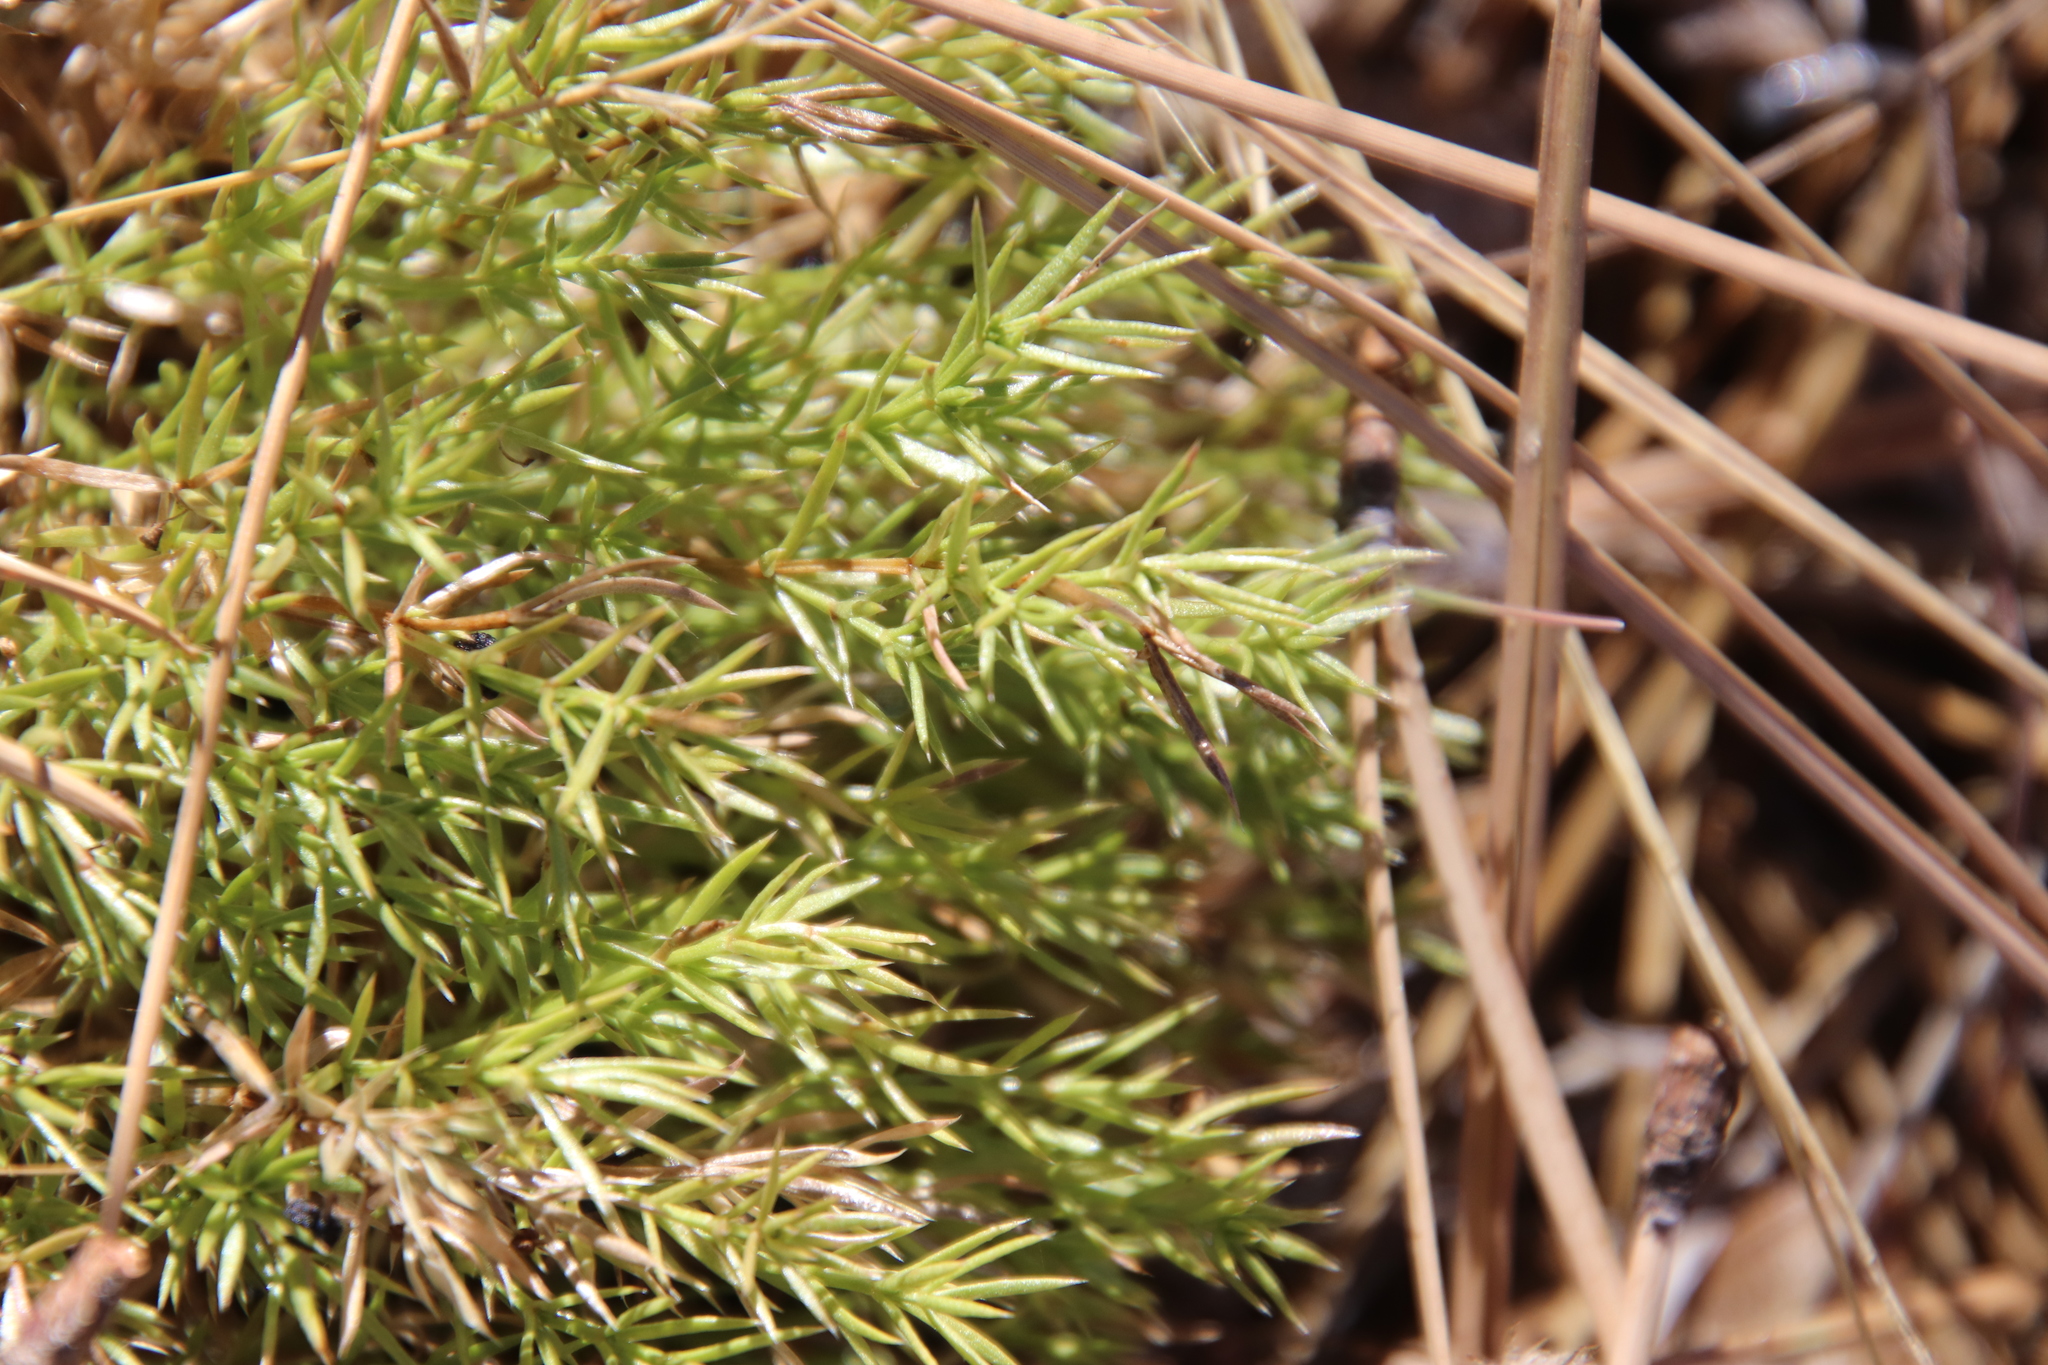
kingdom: Plantae
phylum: Tracheophyta
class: Magnoliopsida
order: Gentianales
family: Rubiaceae
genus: Galium
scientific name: Galium andrewsii
